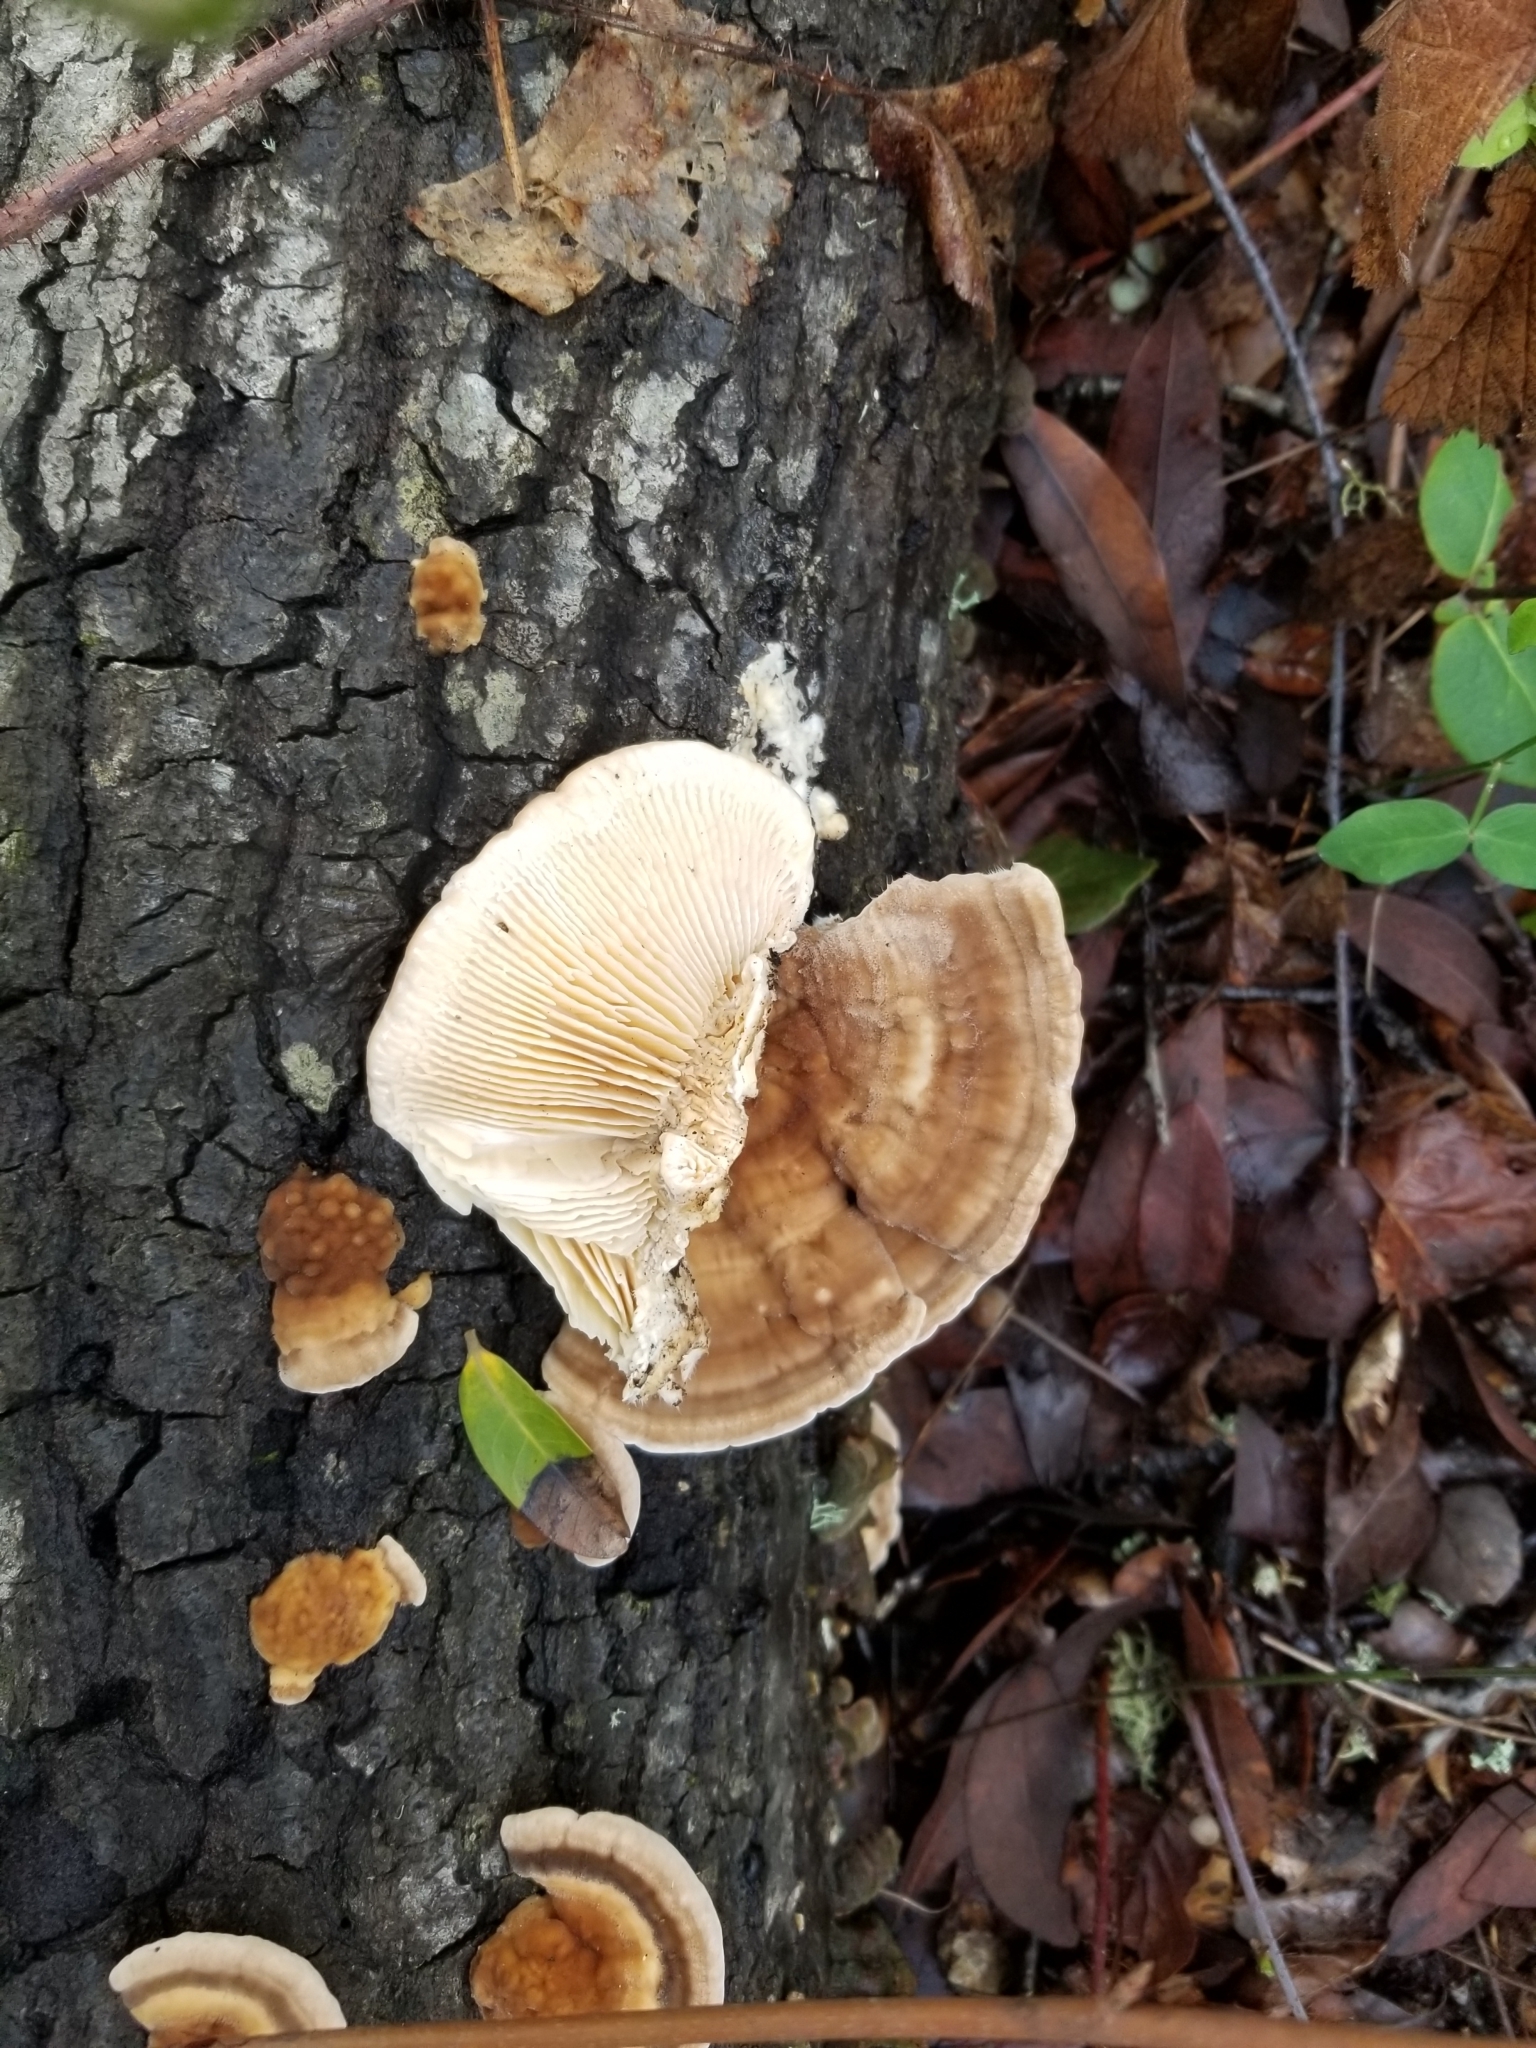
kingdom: Fungi
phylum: Basidiomycota
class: Agaricomycetes
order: Polyporales
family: Polyporaceae
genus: Lenzites
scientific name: Lenzites betulinus
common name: Birch mazegill
